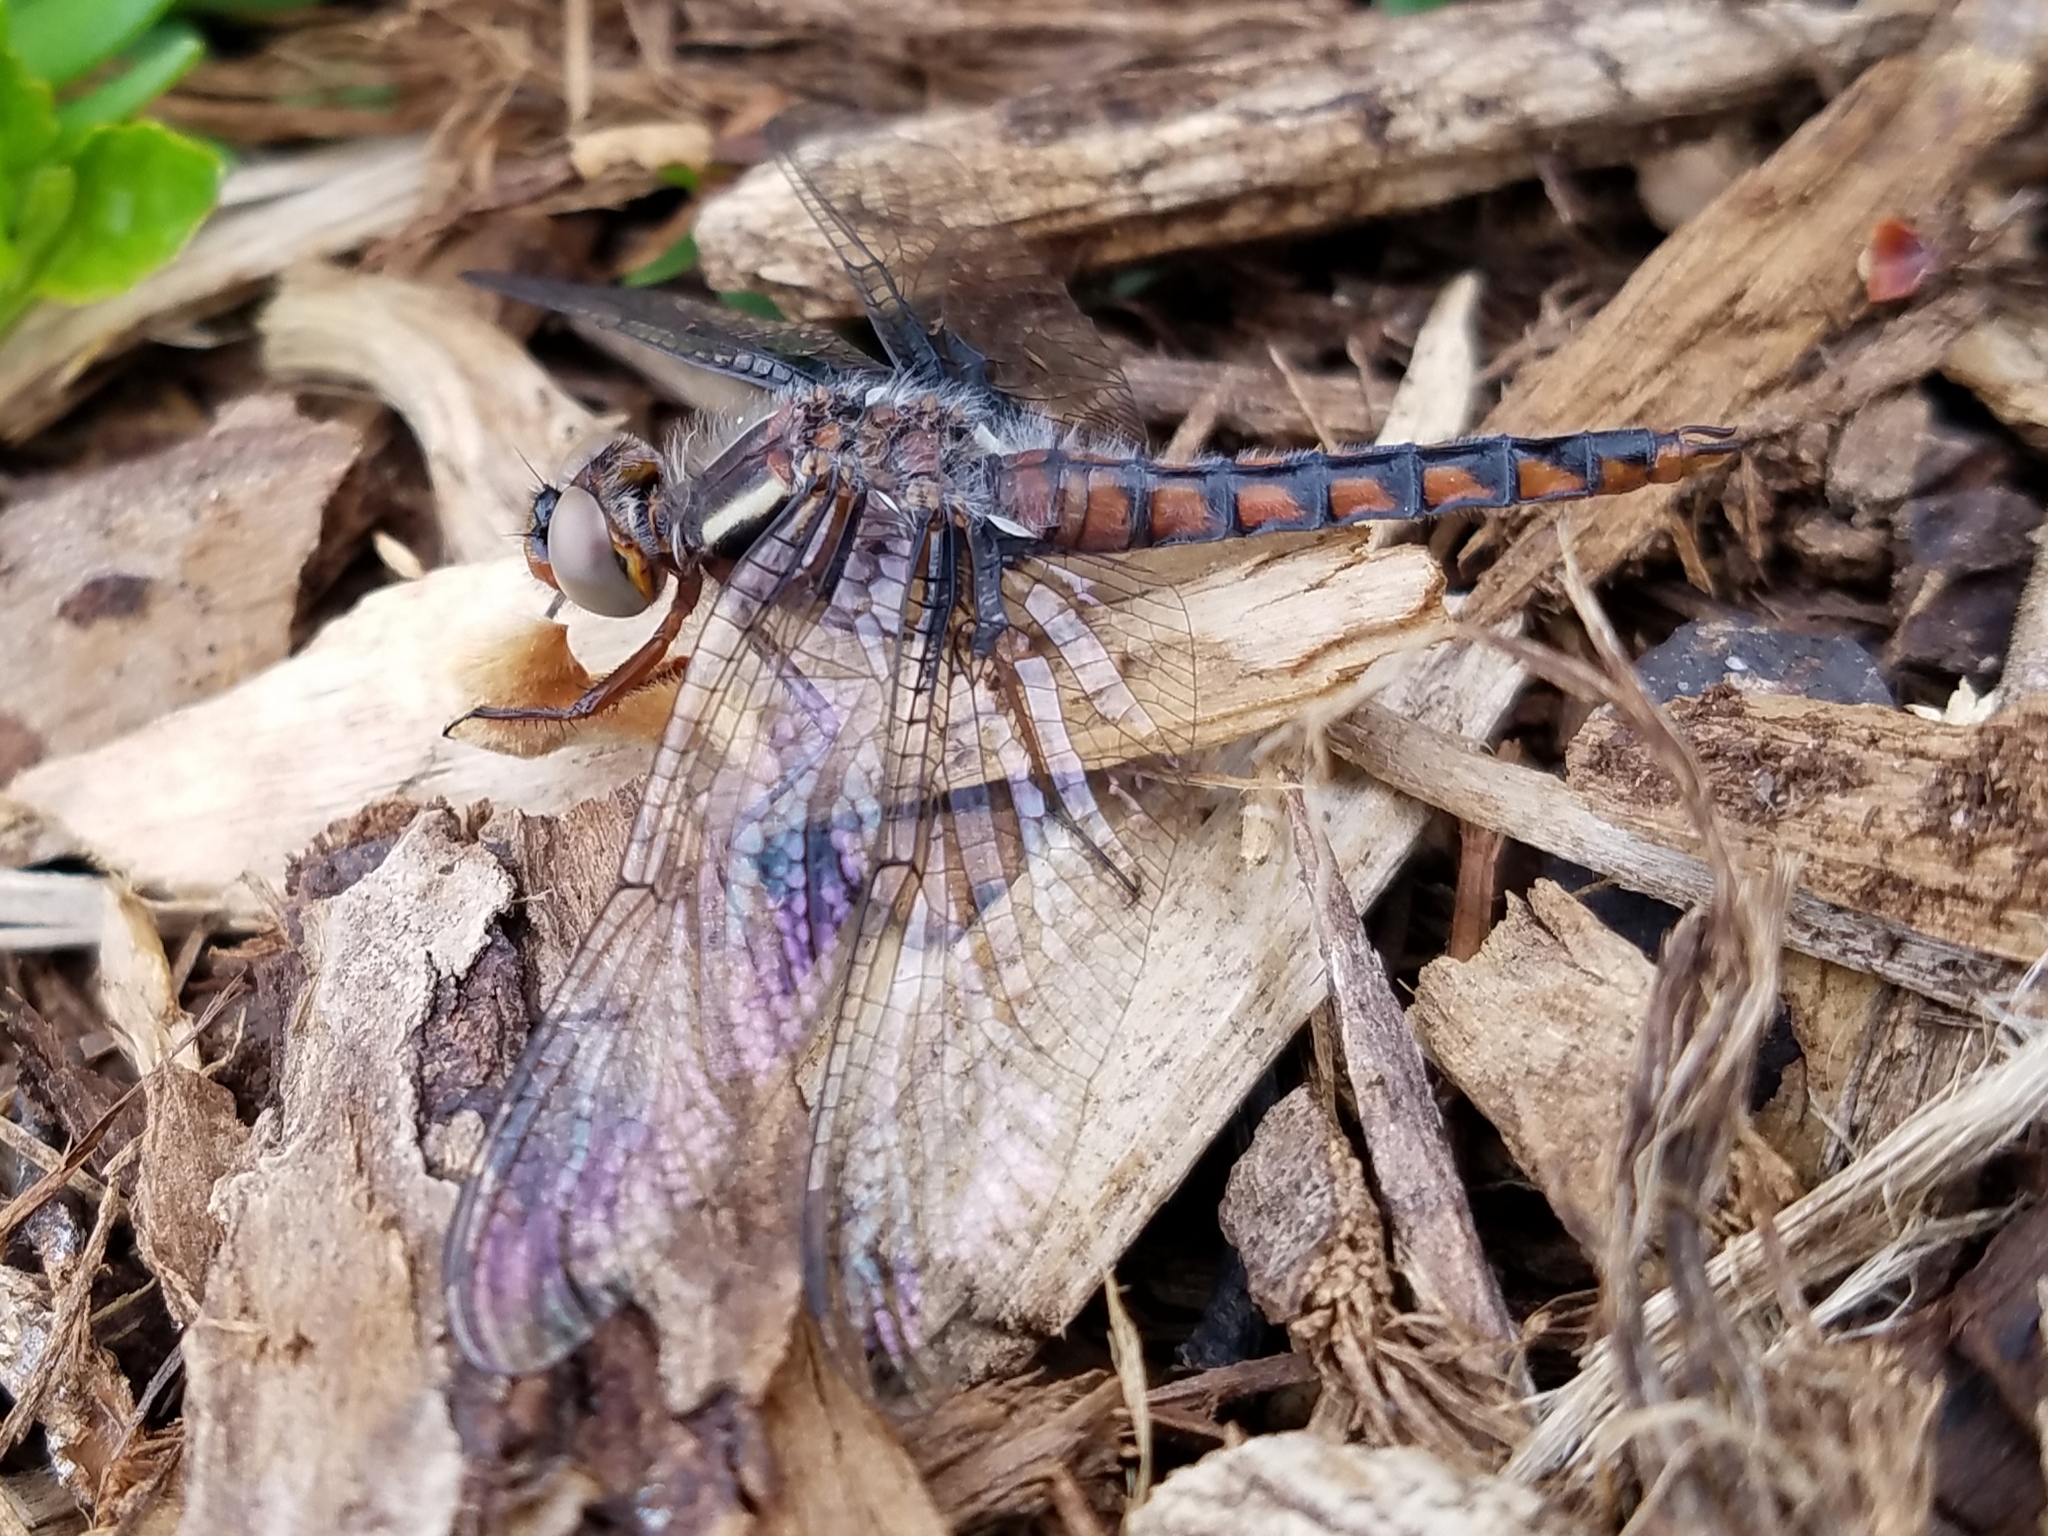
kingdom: Animalia
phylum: Arthropoda
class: Insecta
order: Odonata
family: Libellulidae
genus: Ladona
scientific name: Ladona deplanata
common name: Blue corporal
